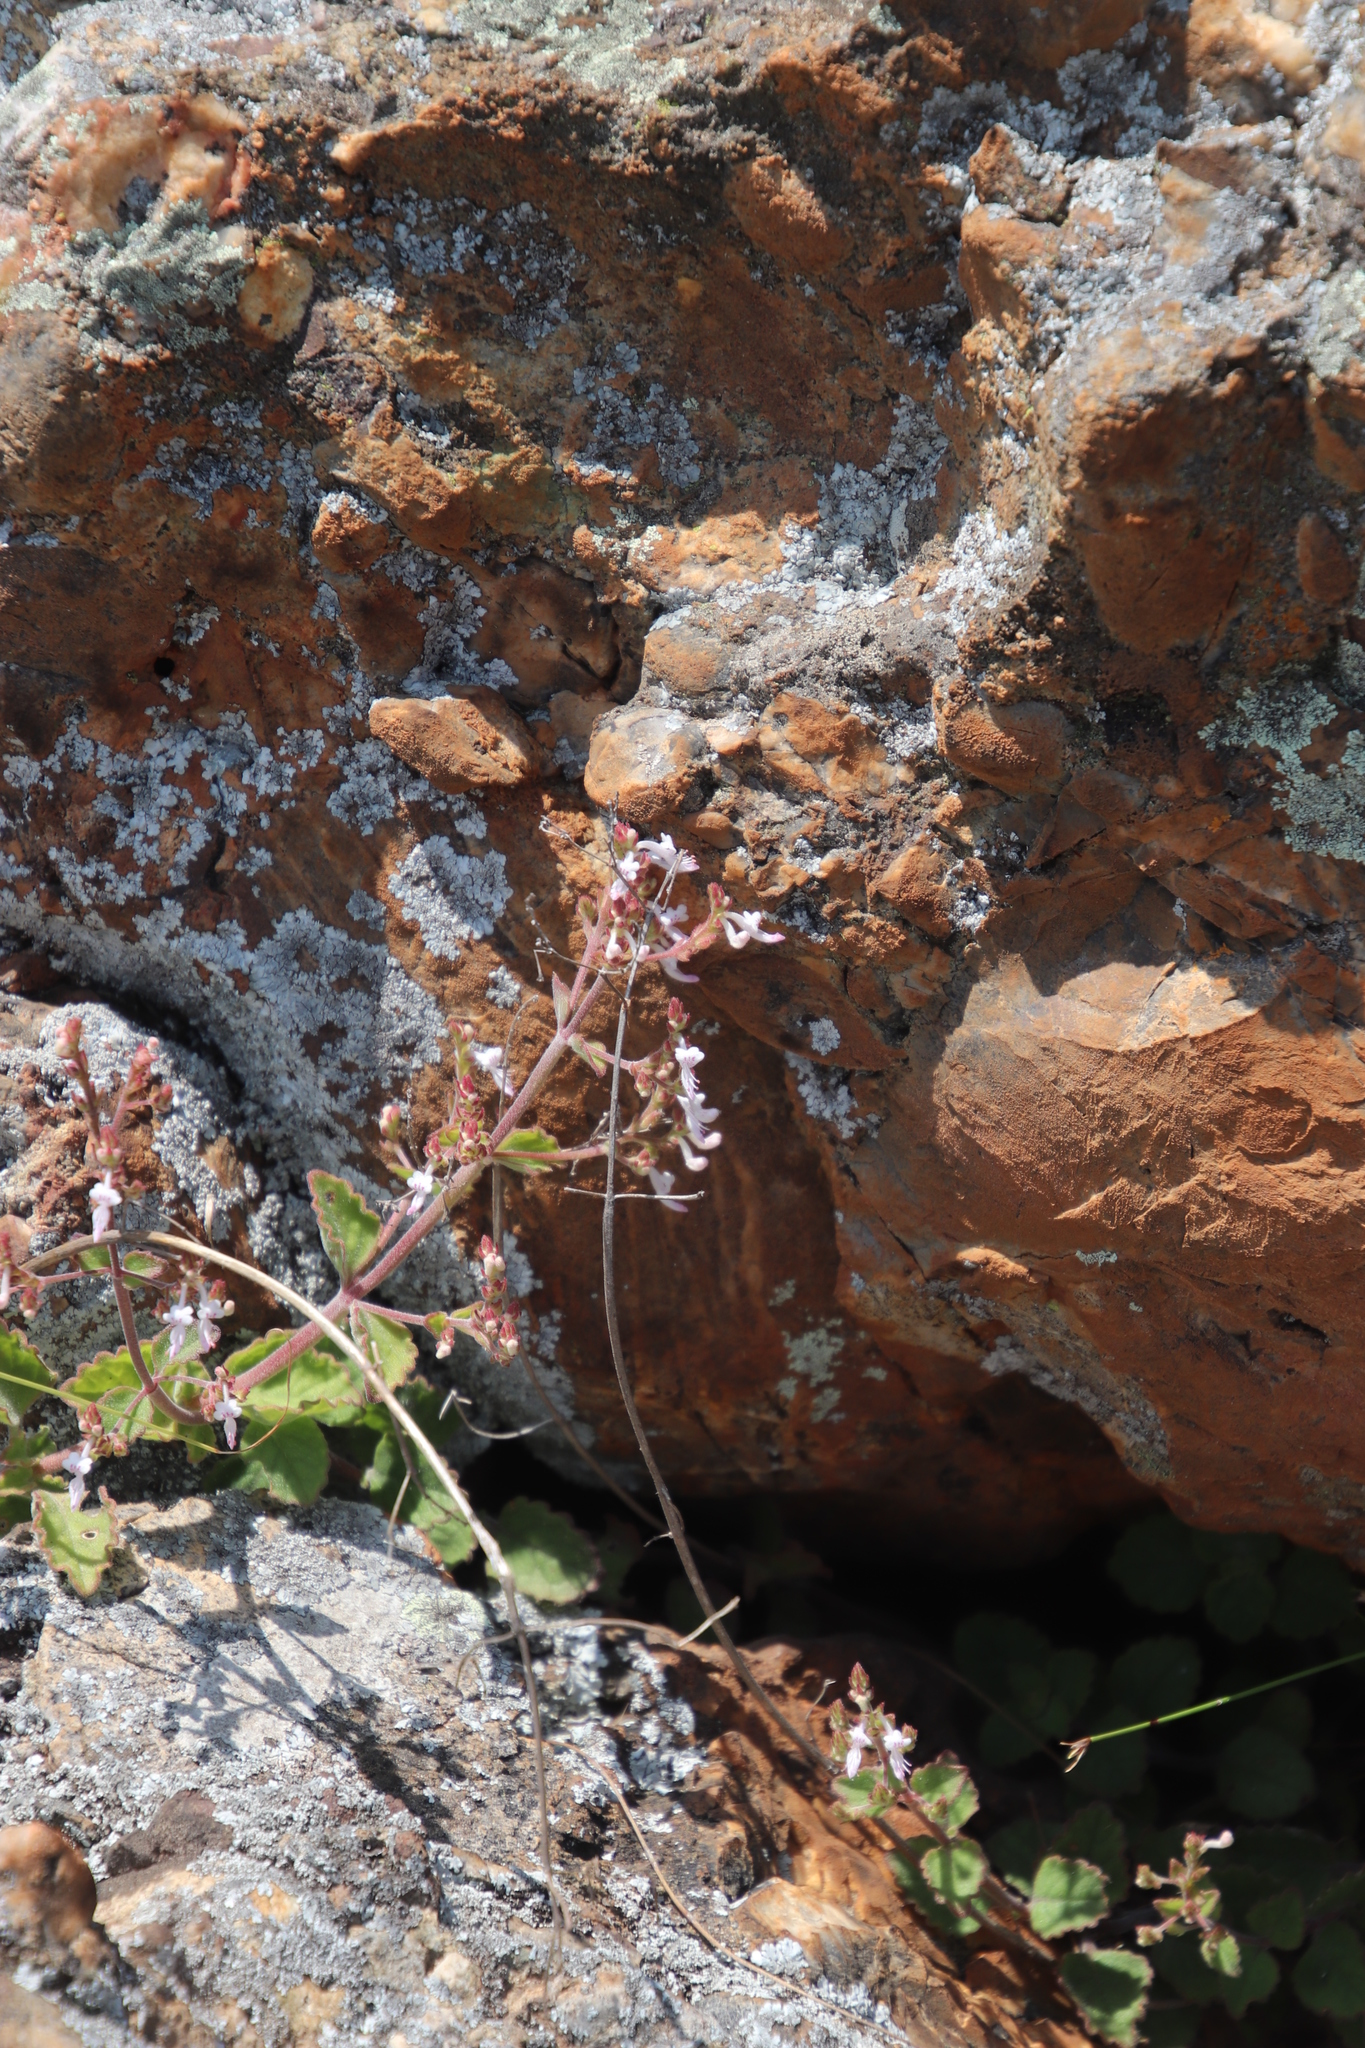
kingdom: Plantae
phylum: Tracheophyta
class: Magnoliopsida
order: Lamiales
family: Lamiaceae
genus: Aeollanthus
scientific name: Aeollanthus rehmannii
